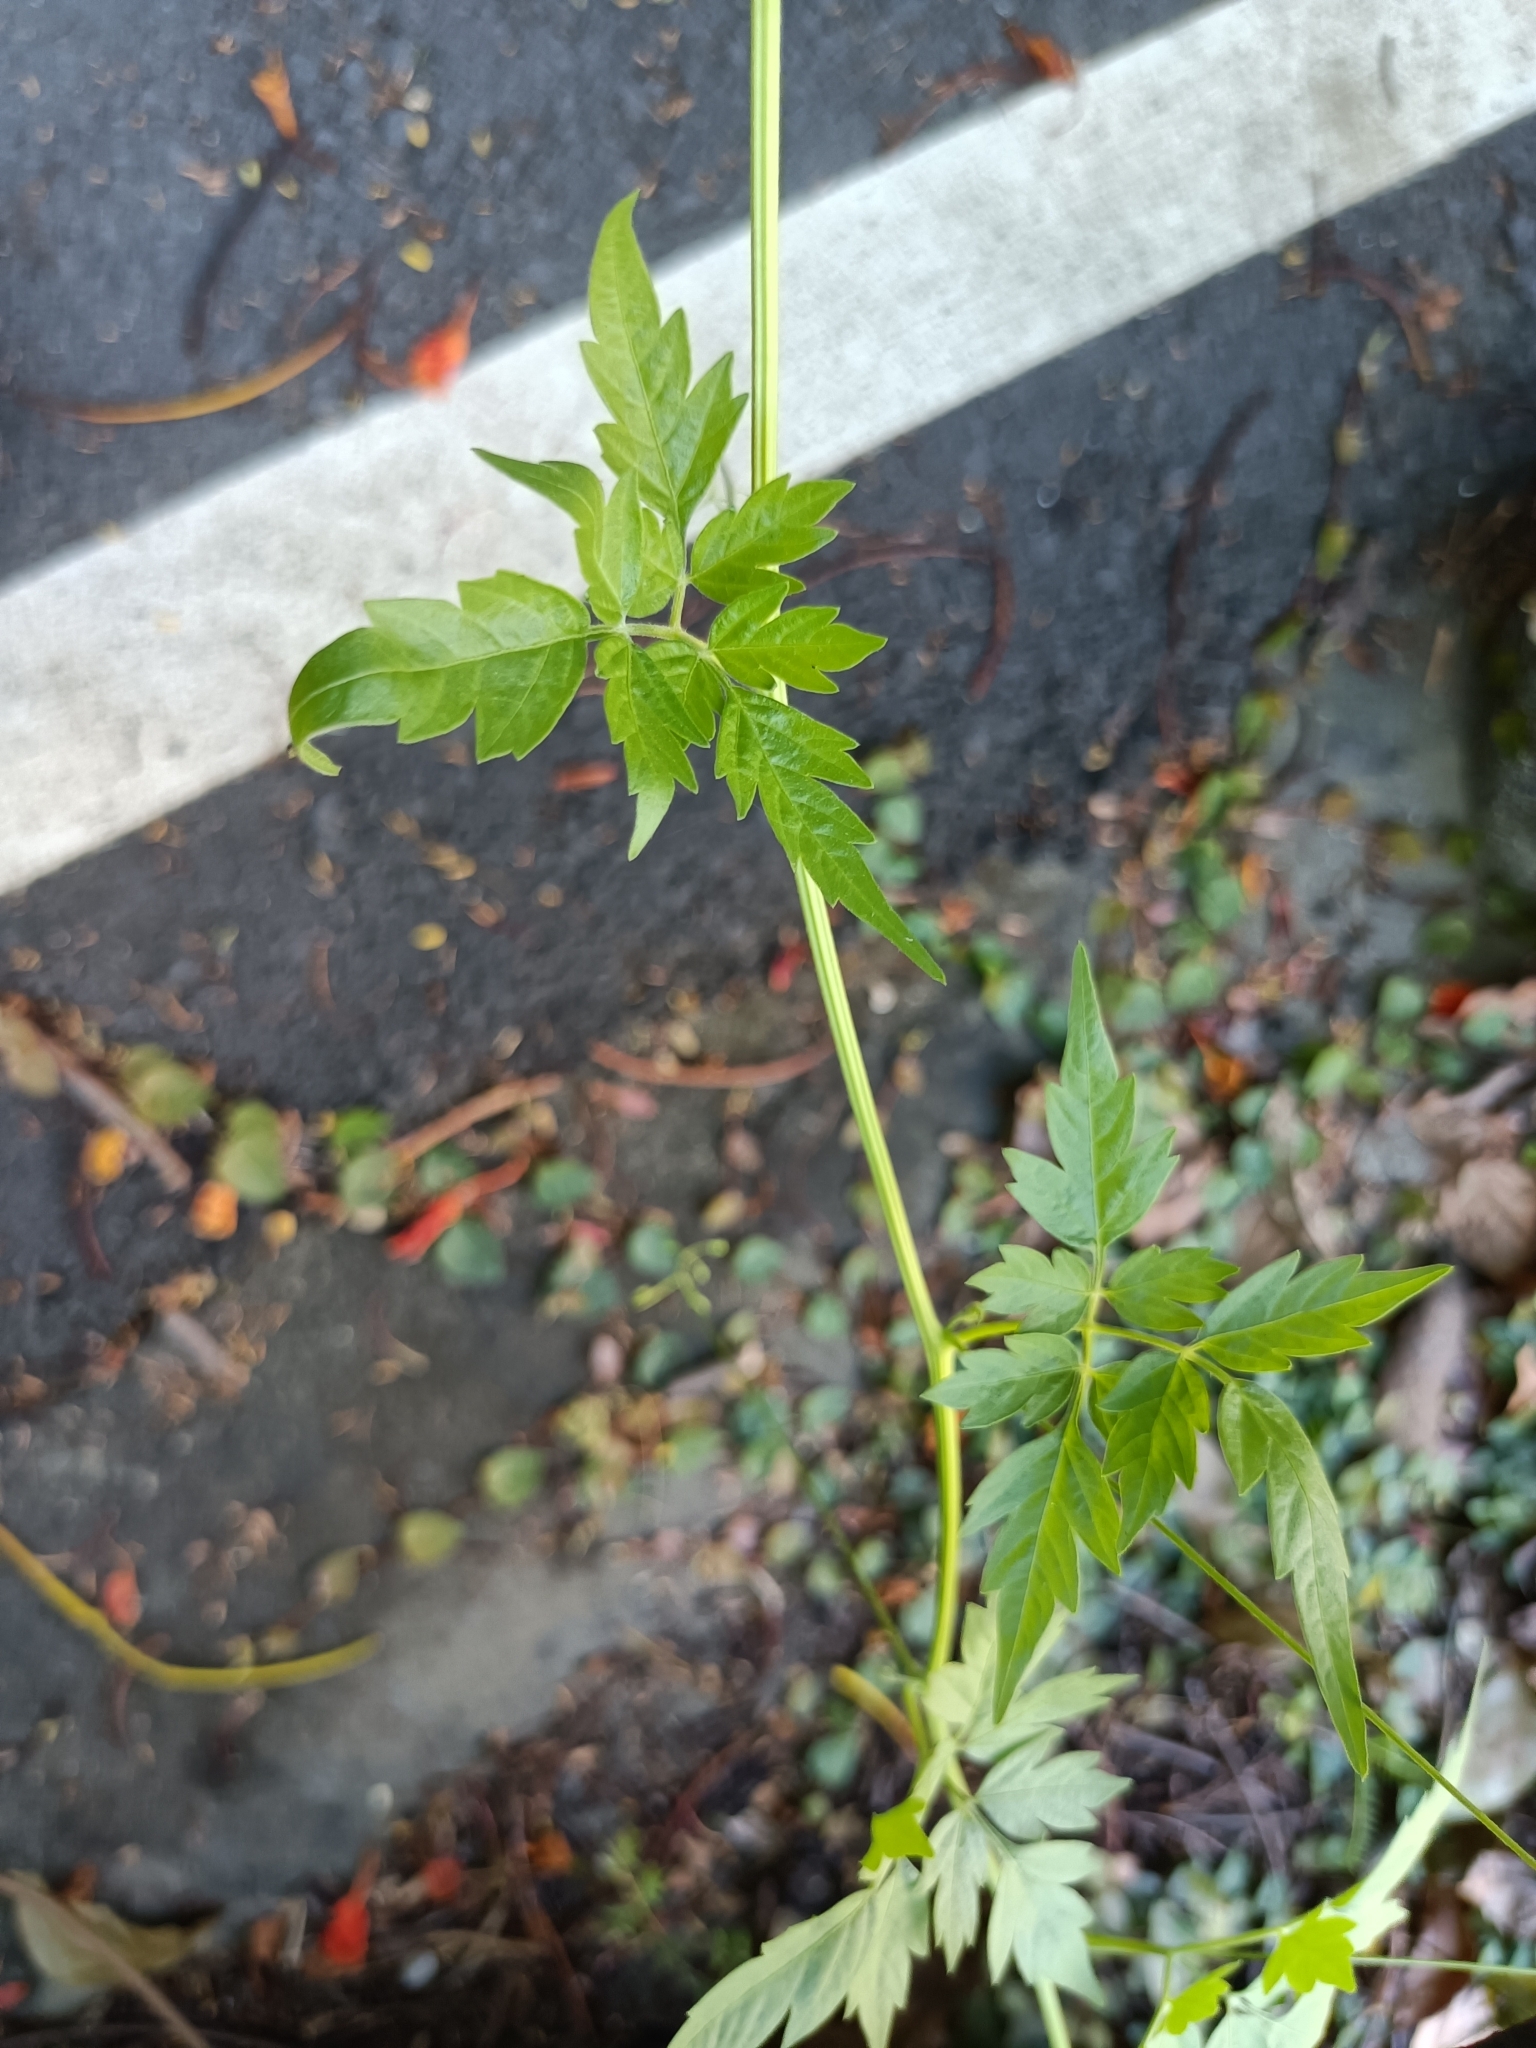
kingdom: Plantae
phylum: Tracheophyta
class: Magnoliopsida
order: Sapindales
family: Sapindaceae
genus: Cardiospermum
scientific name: Cardiospermum halicacabum
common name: Balloon vine
